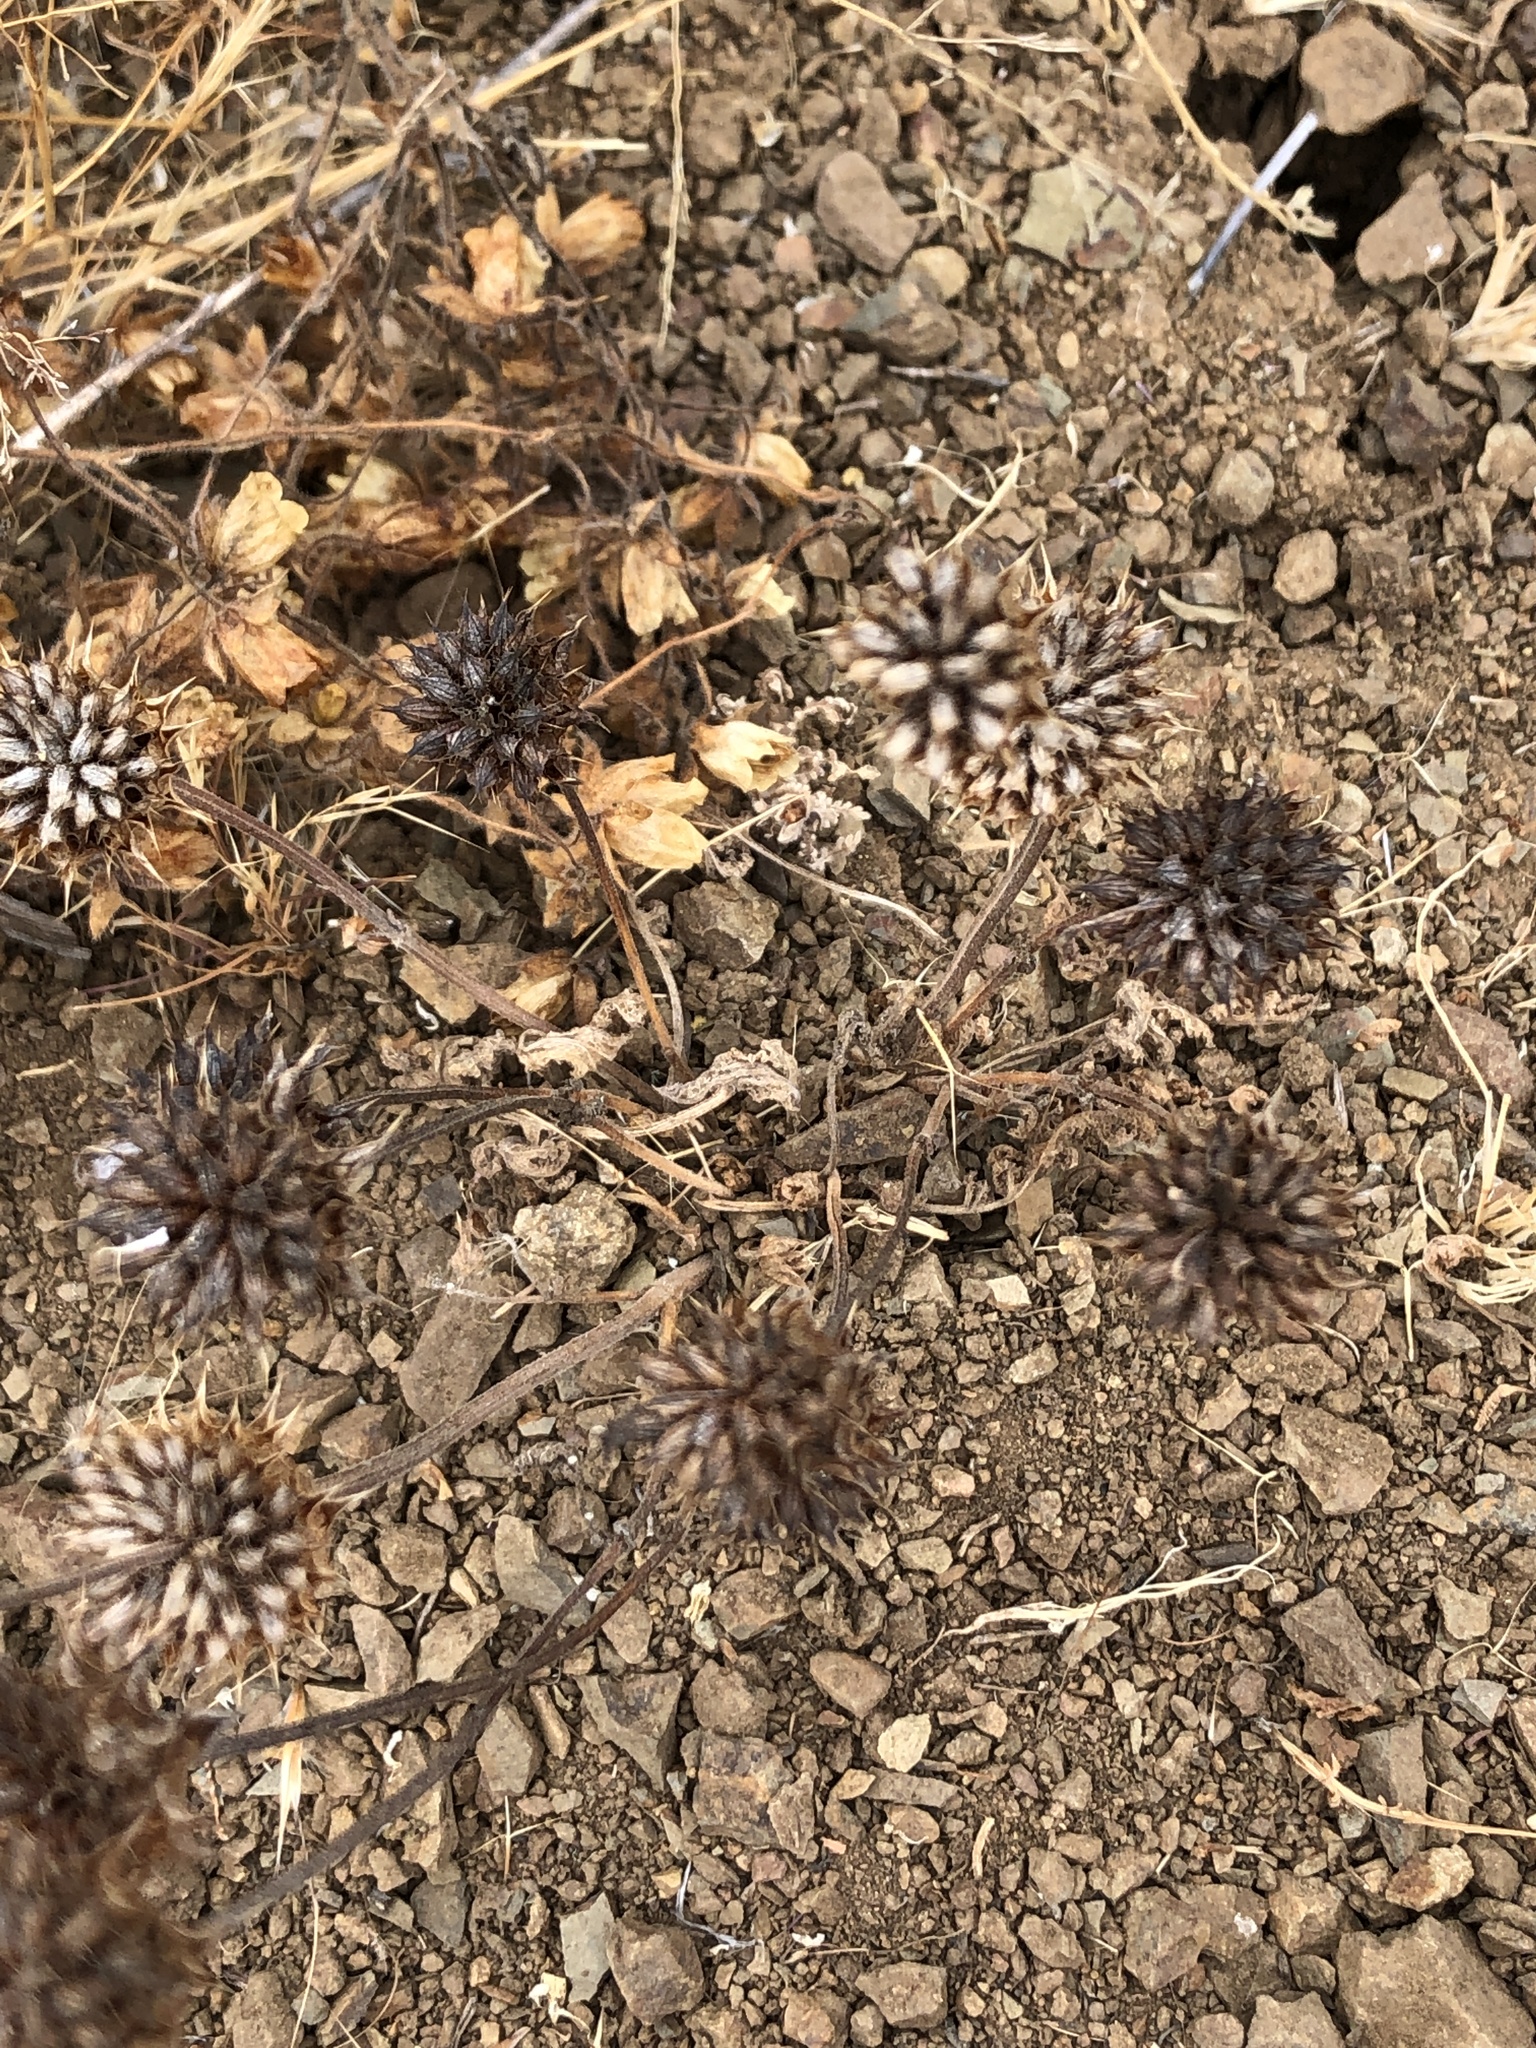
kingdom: Plantae
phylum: Tracheophyta
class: Magnoliopsida
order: Lamiales
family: Lamiaceae
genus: Salvia
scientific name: Salvia columbariae
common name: Chia
